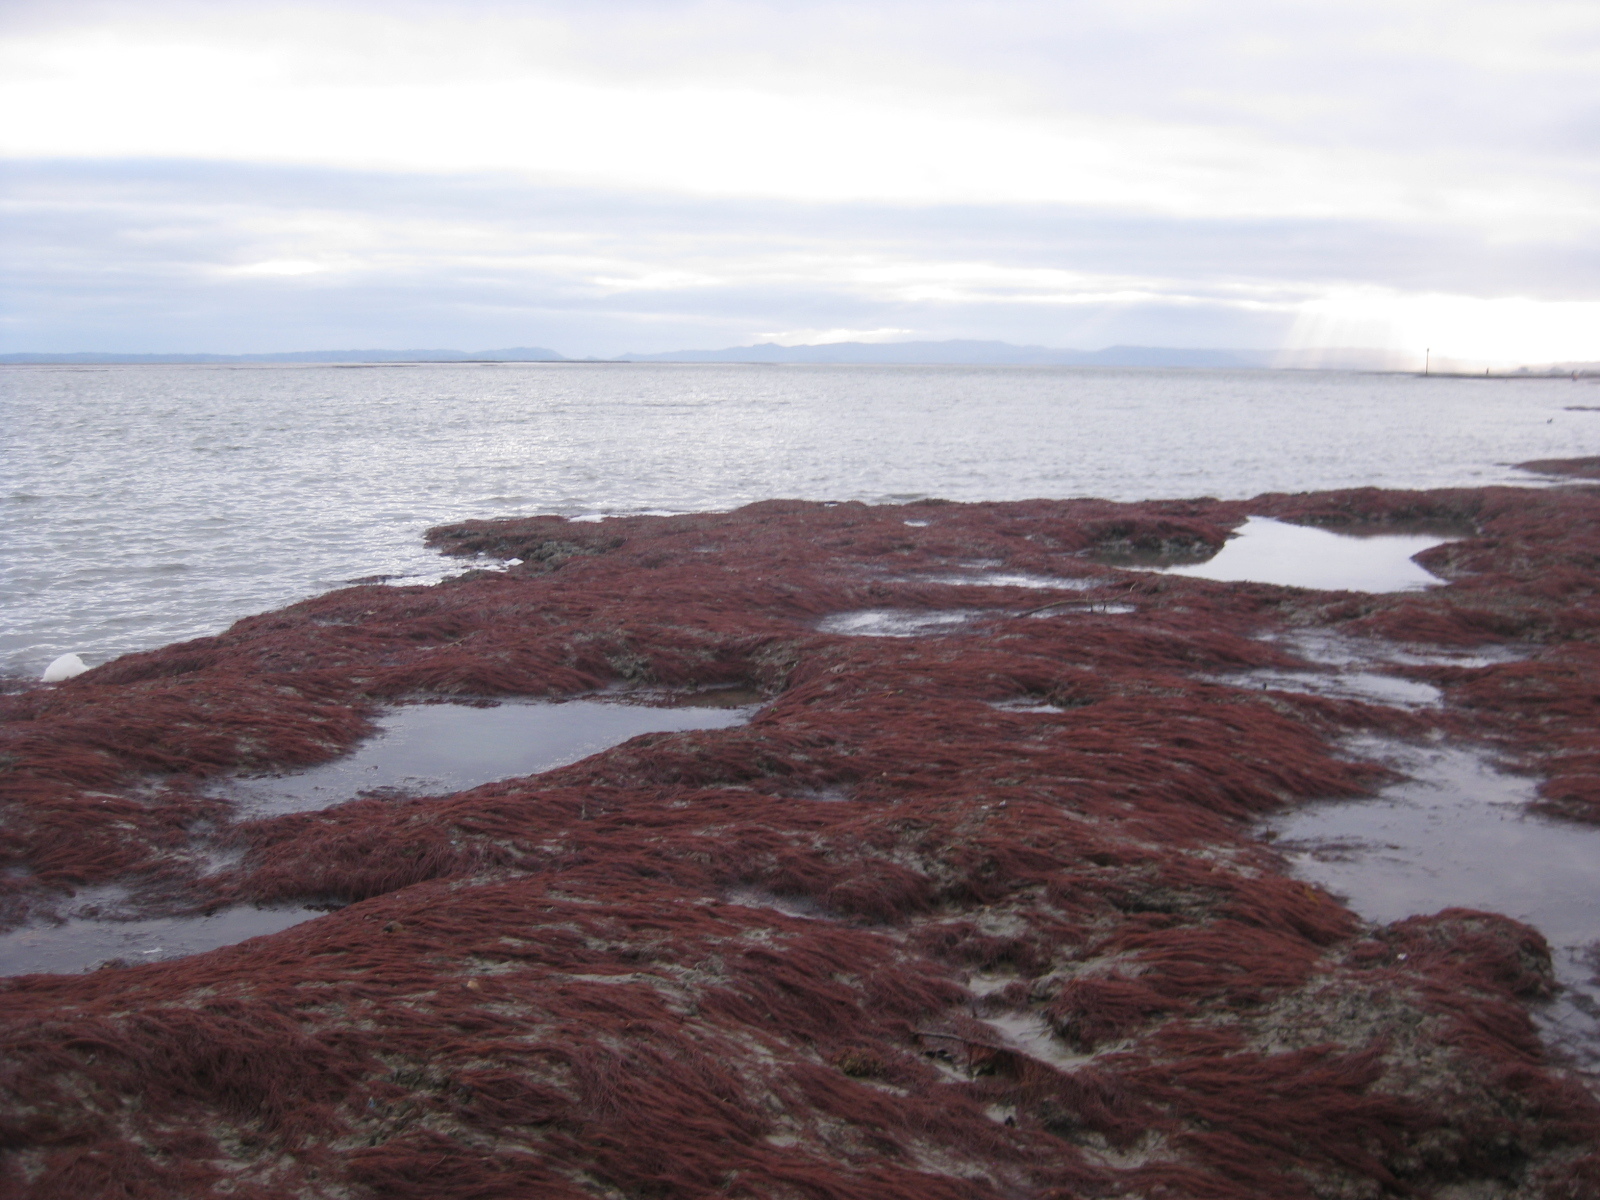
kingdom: Animalia
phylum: Mollusca
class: Bivalvia
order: Mytilida
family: Mytilidae
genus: Arcuatula
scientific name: Arcuatula senhousia
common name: Asian mussel
